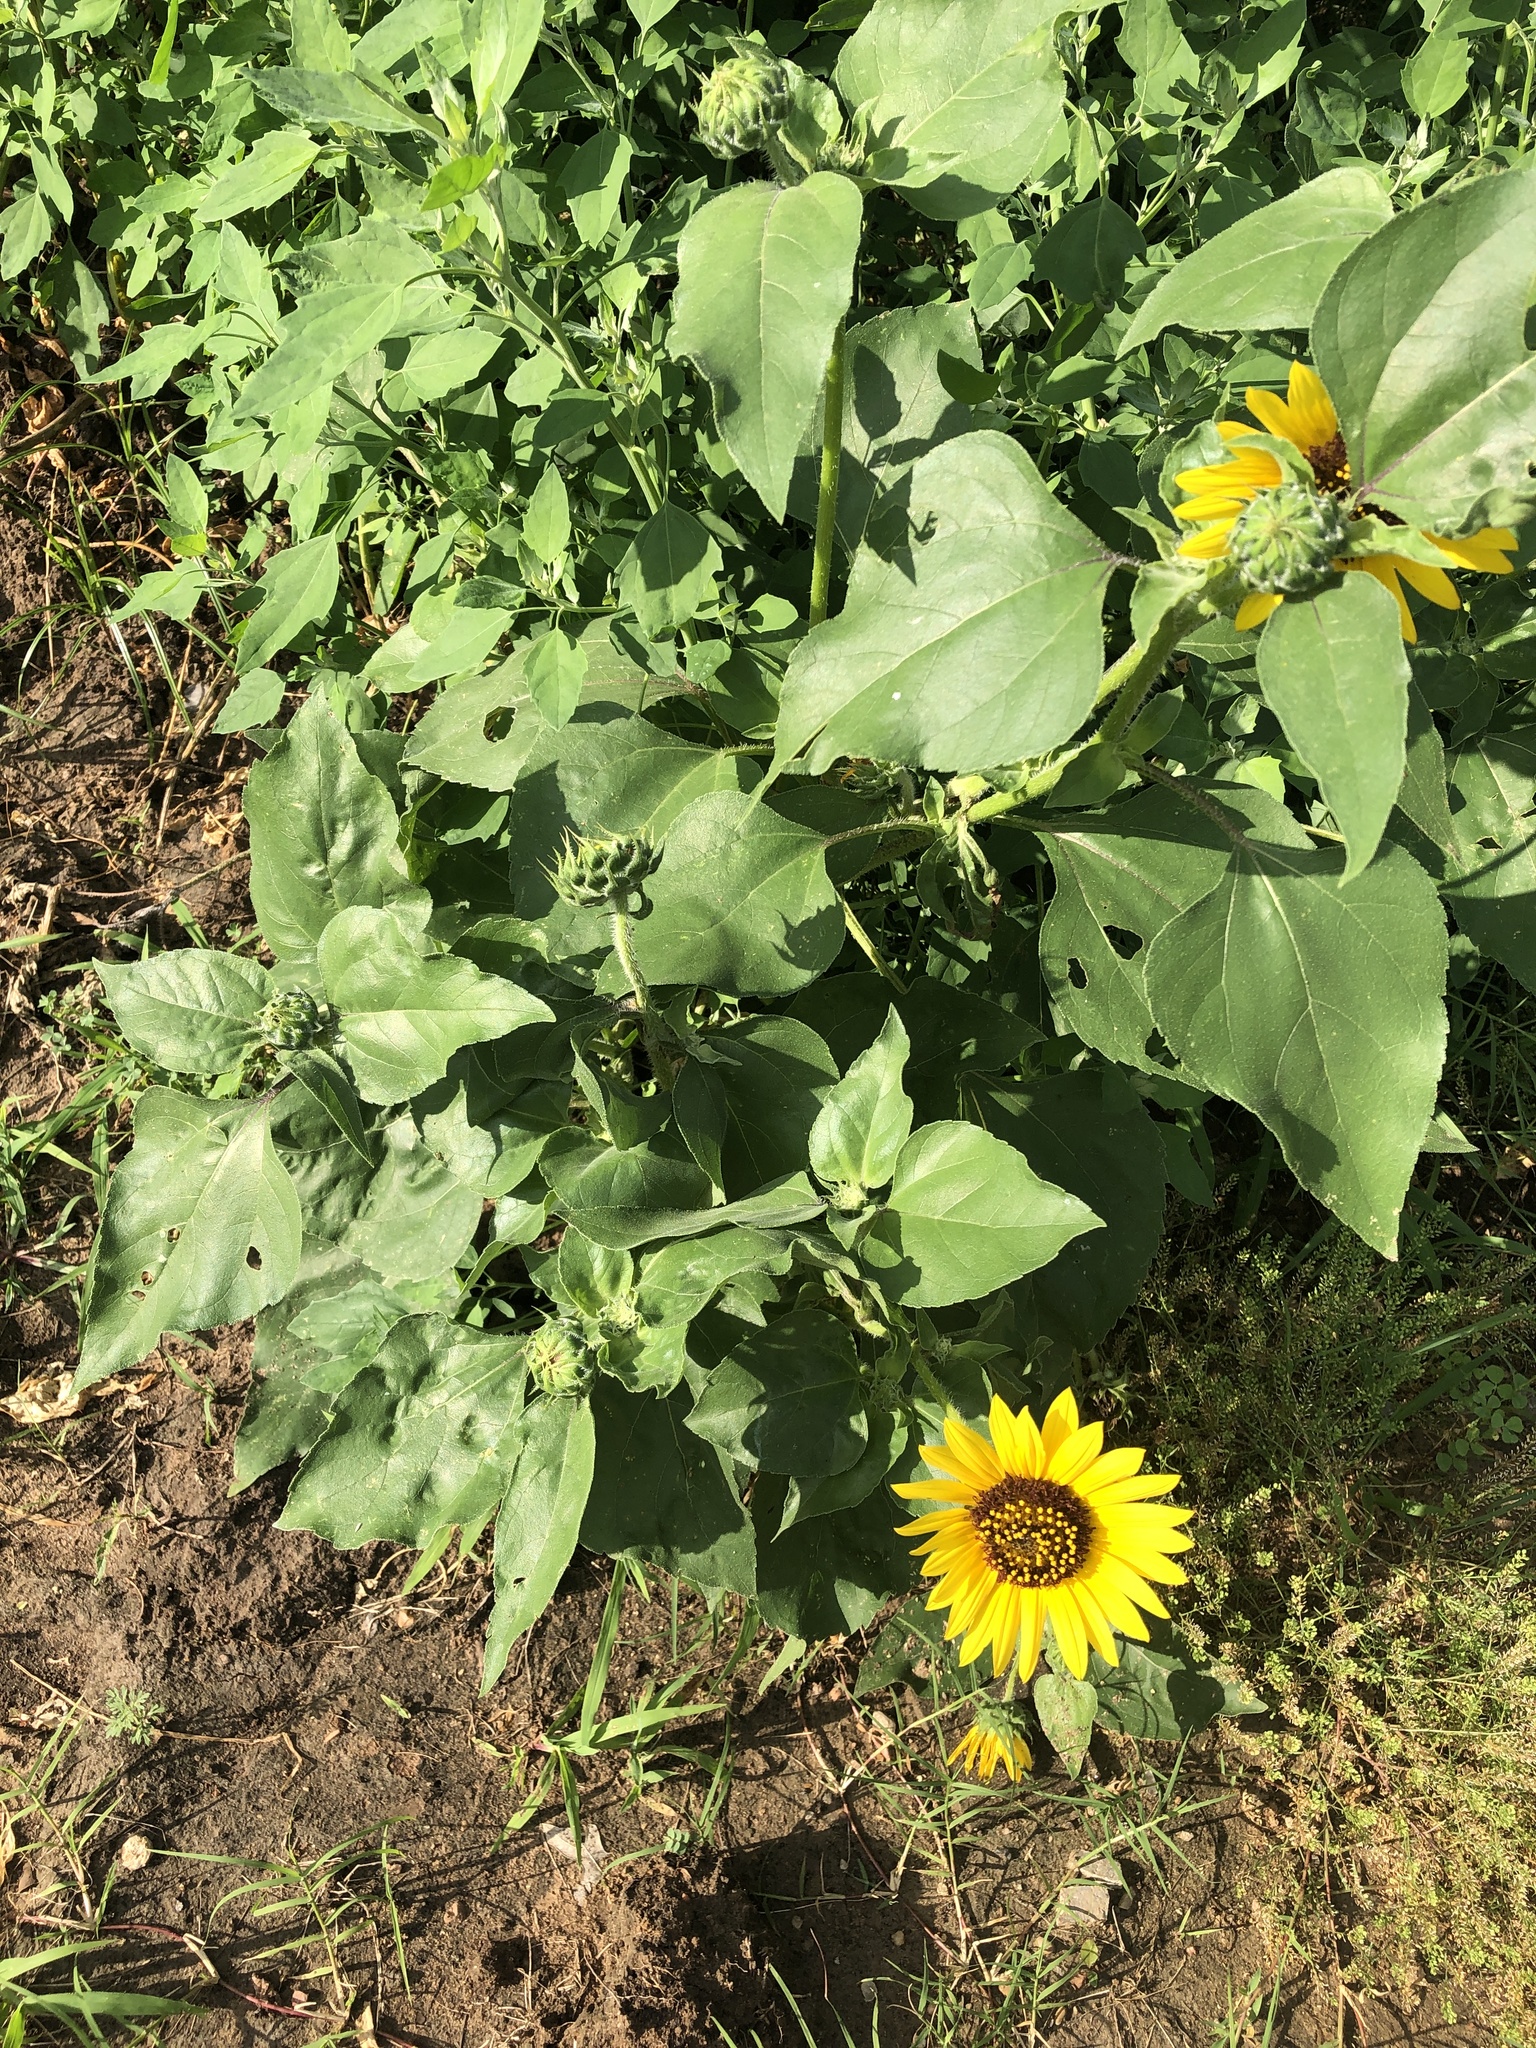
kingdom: Plantae
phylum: Tracheophyta
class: Magnoliopsida
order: Asterales
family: Asteraceae
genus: Helianthus
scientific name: Helianthus annuus
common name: Sunflower
